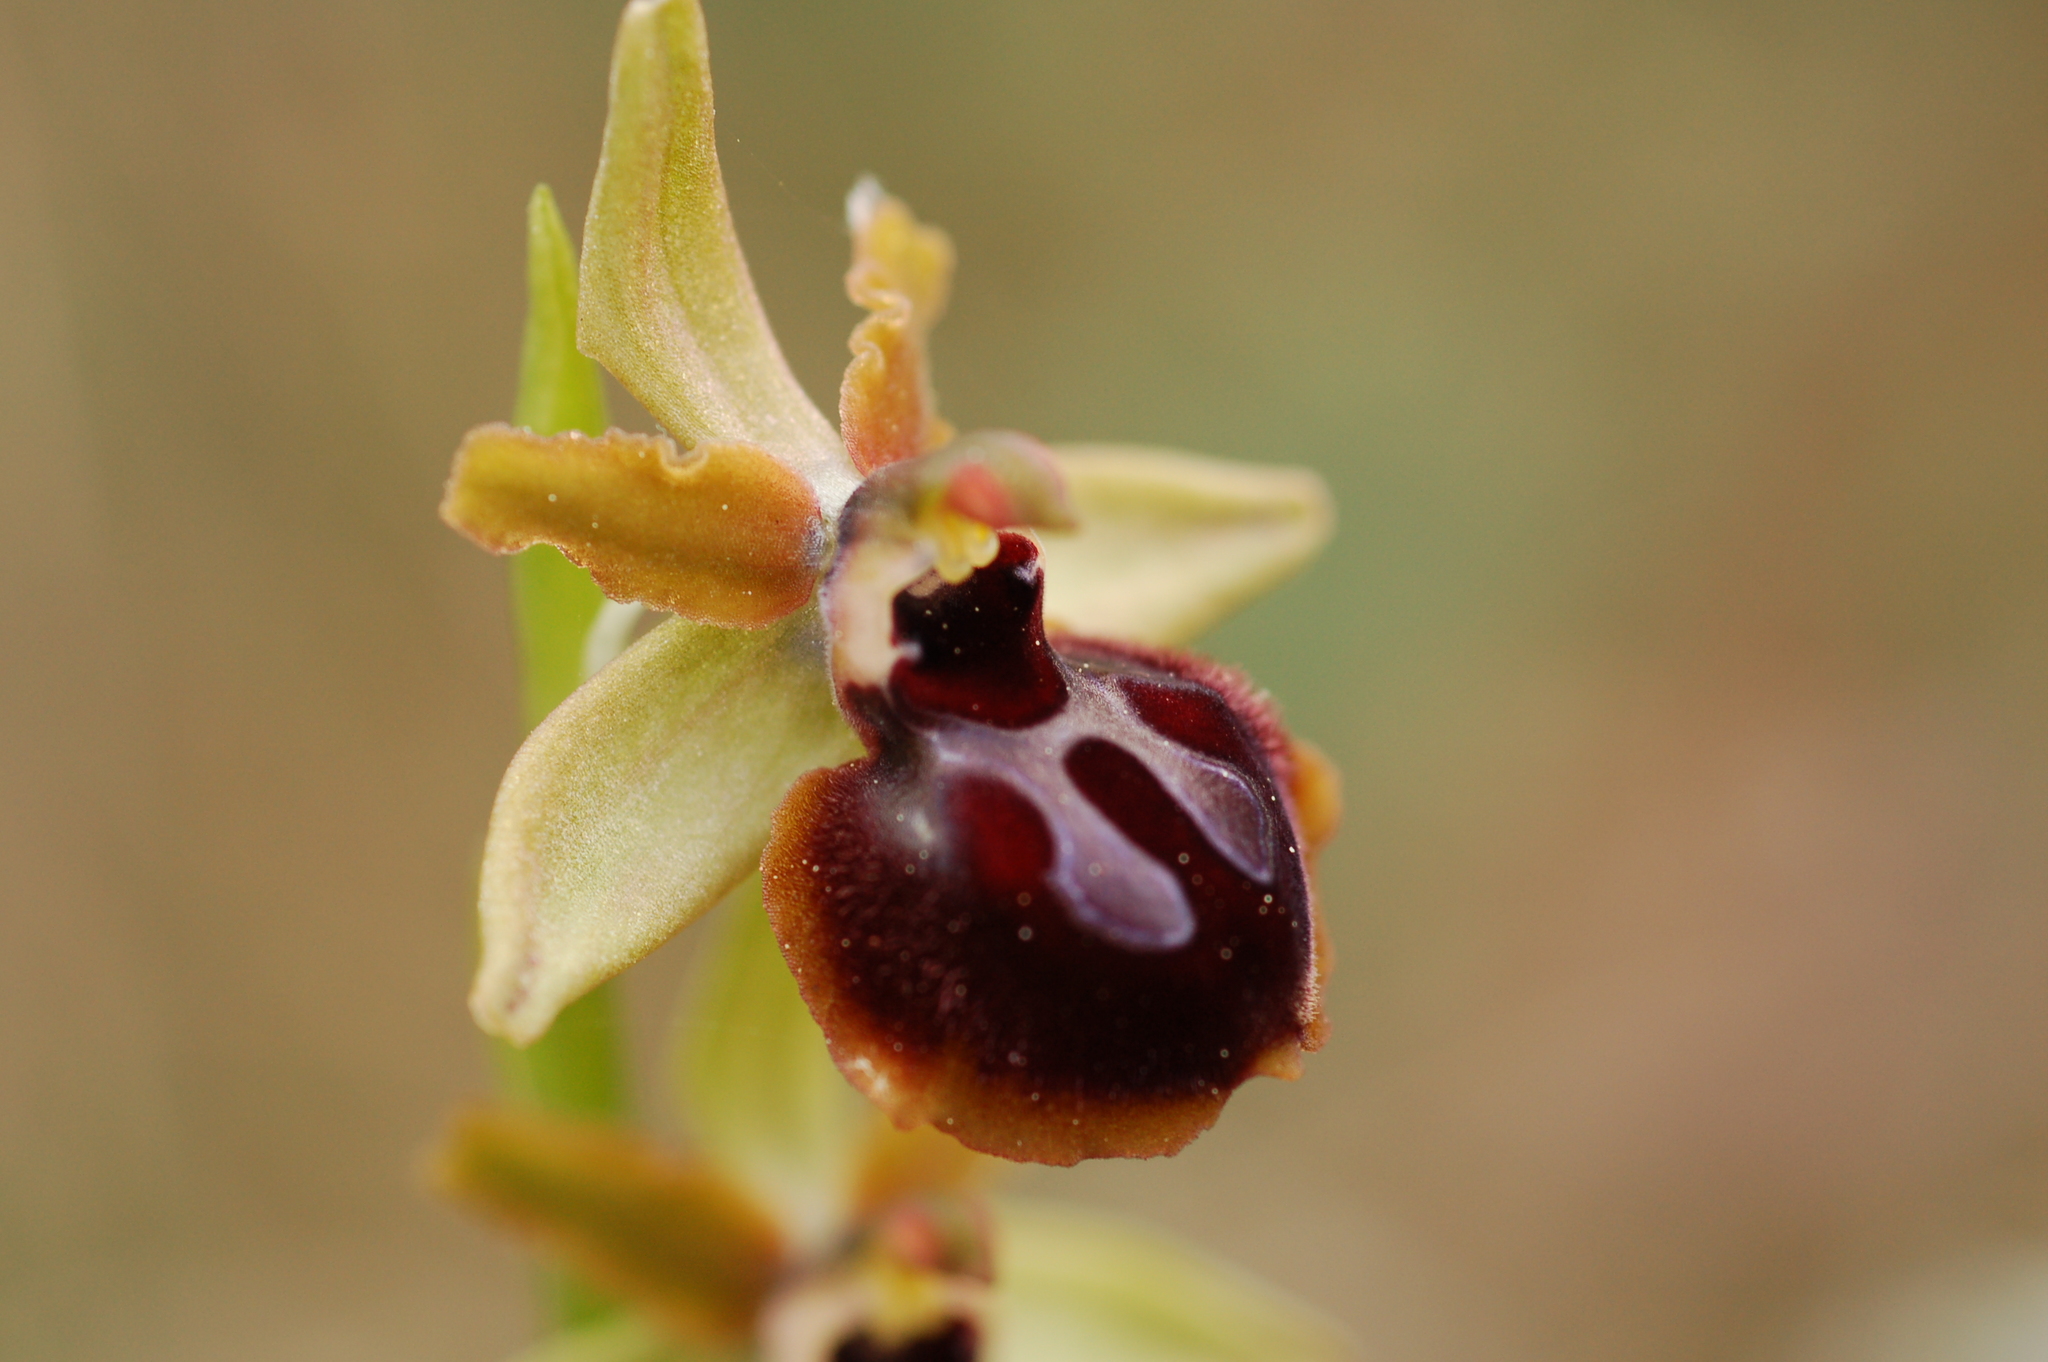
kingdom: Plantae
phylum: Tracheophyta
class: Liliopsida
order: Asparagales
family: Orchidaceae
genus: Ophrys
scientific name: Ophrys sphegodes
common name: Early spider-orchid
